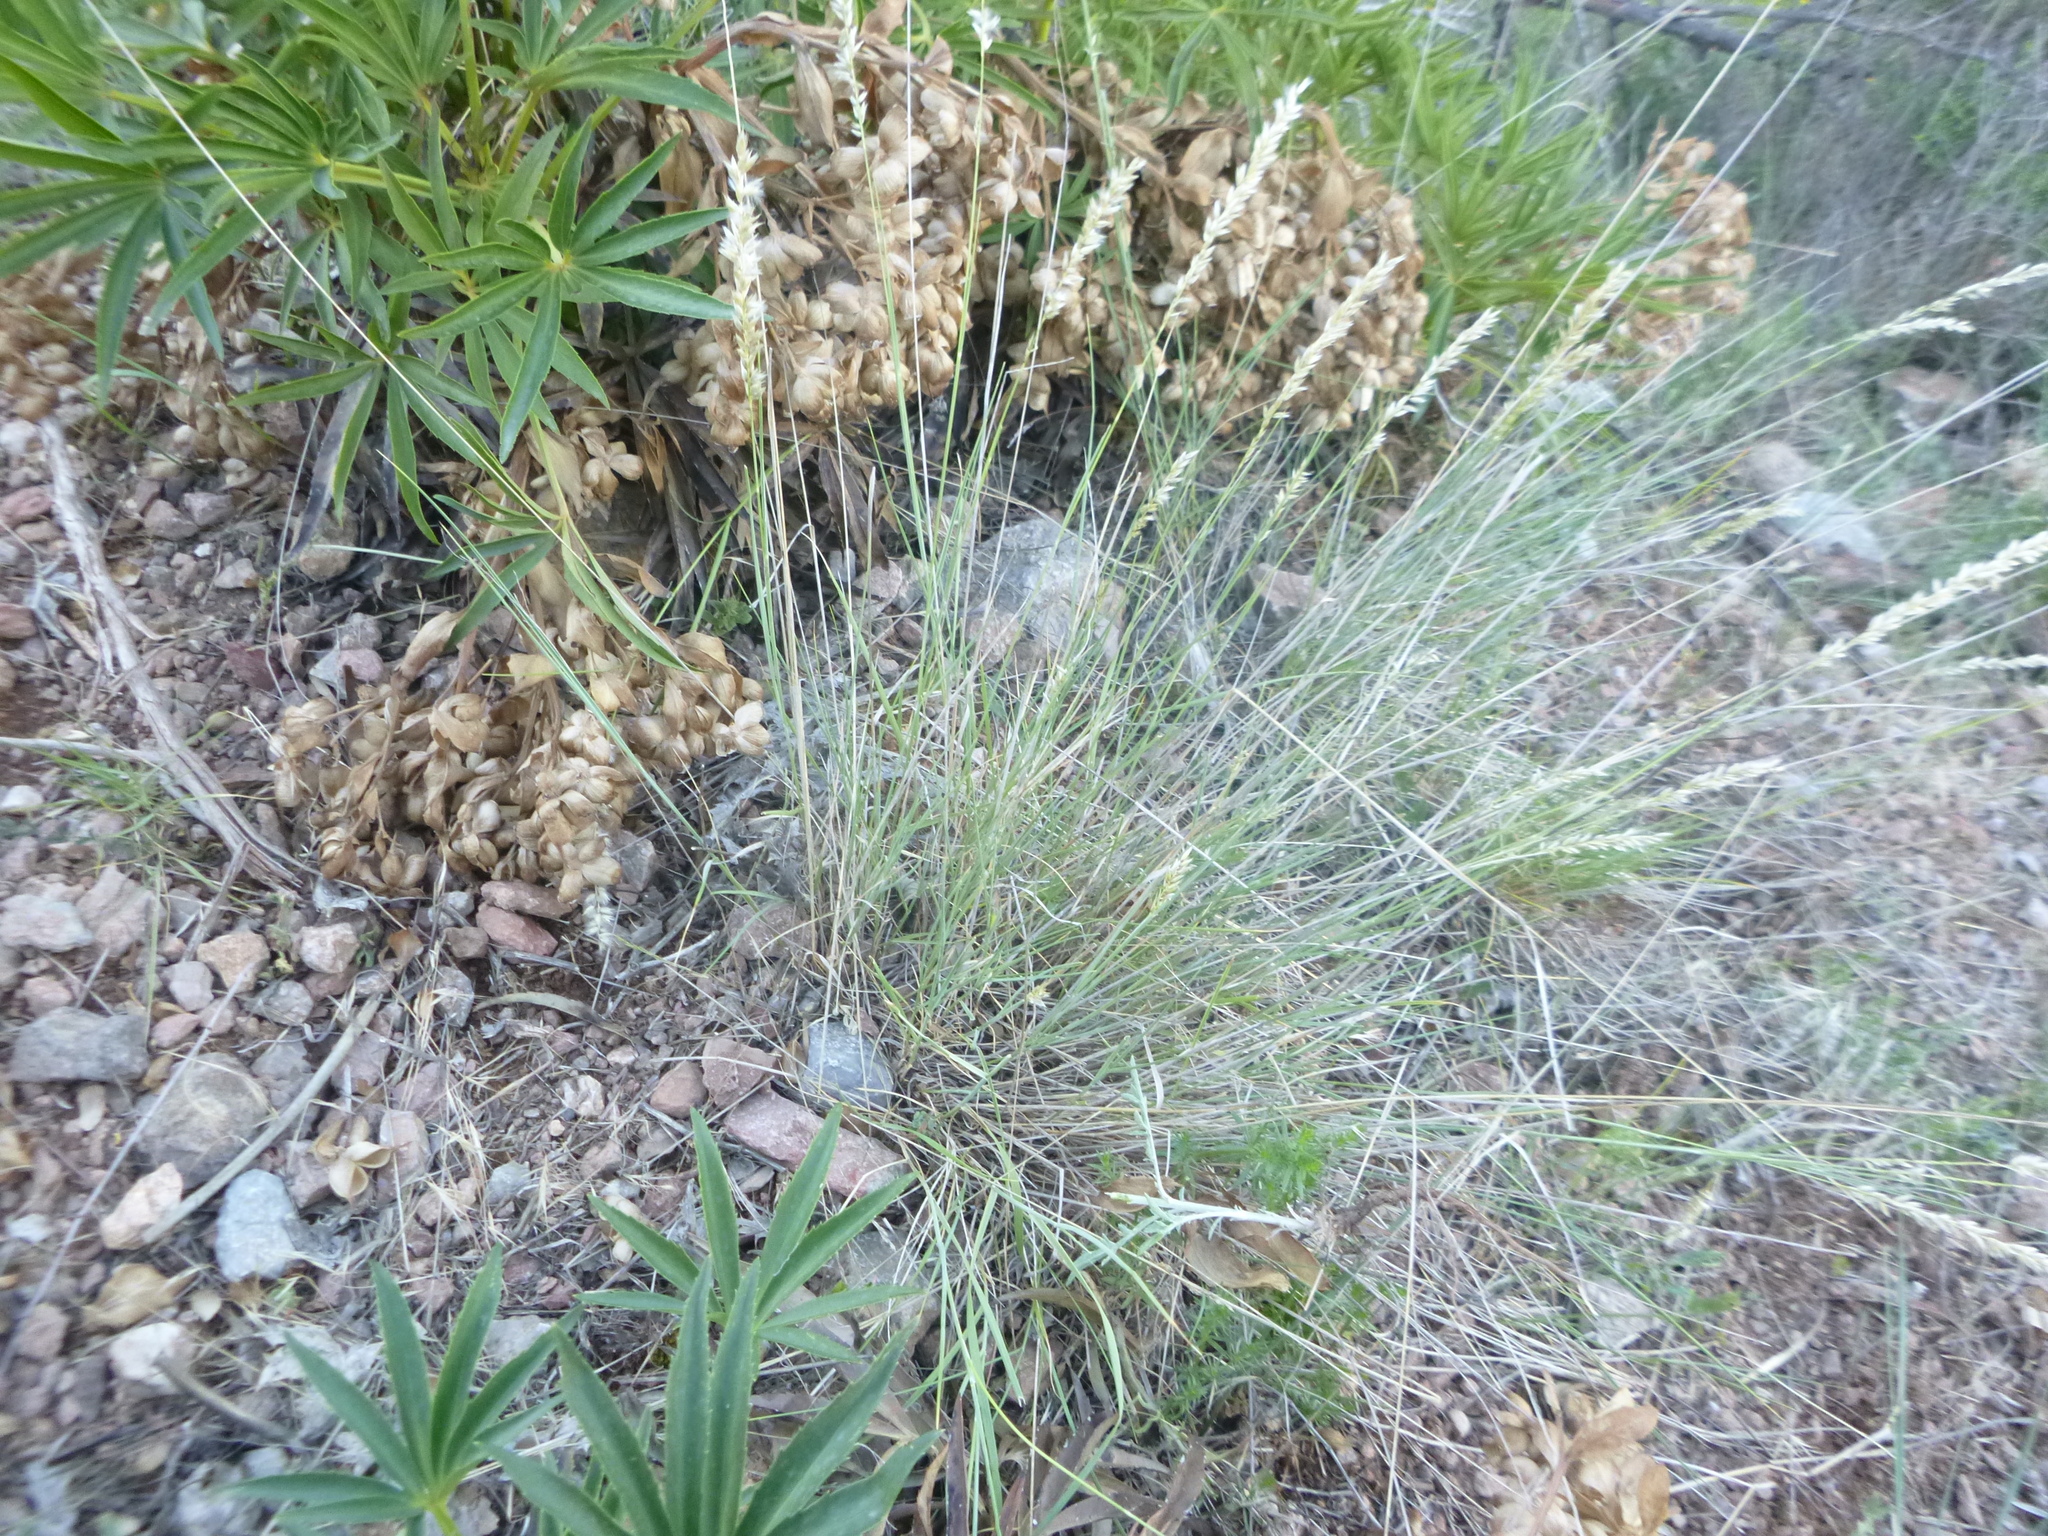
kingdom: Plantae
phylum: Tracheophyta
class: Liliopsida
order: Poales
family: Poaceae
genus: Melica
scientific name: Melica ciliata
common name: Hairy melicgrass
